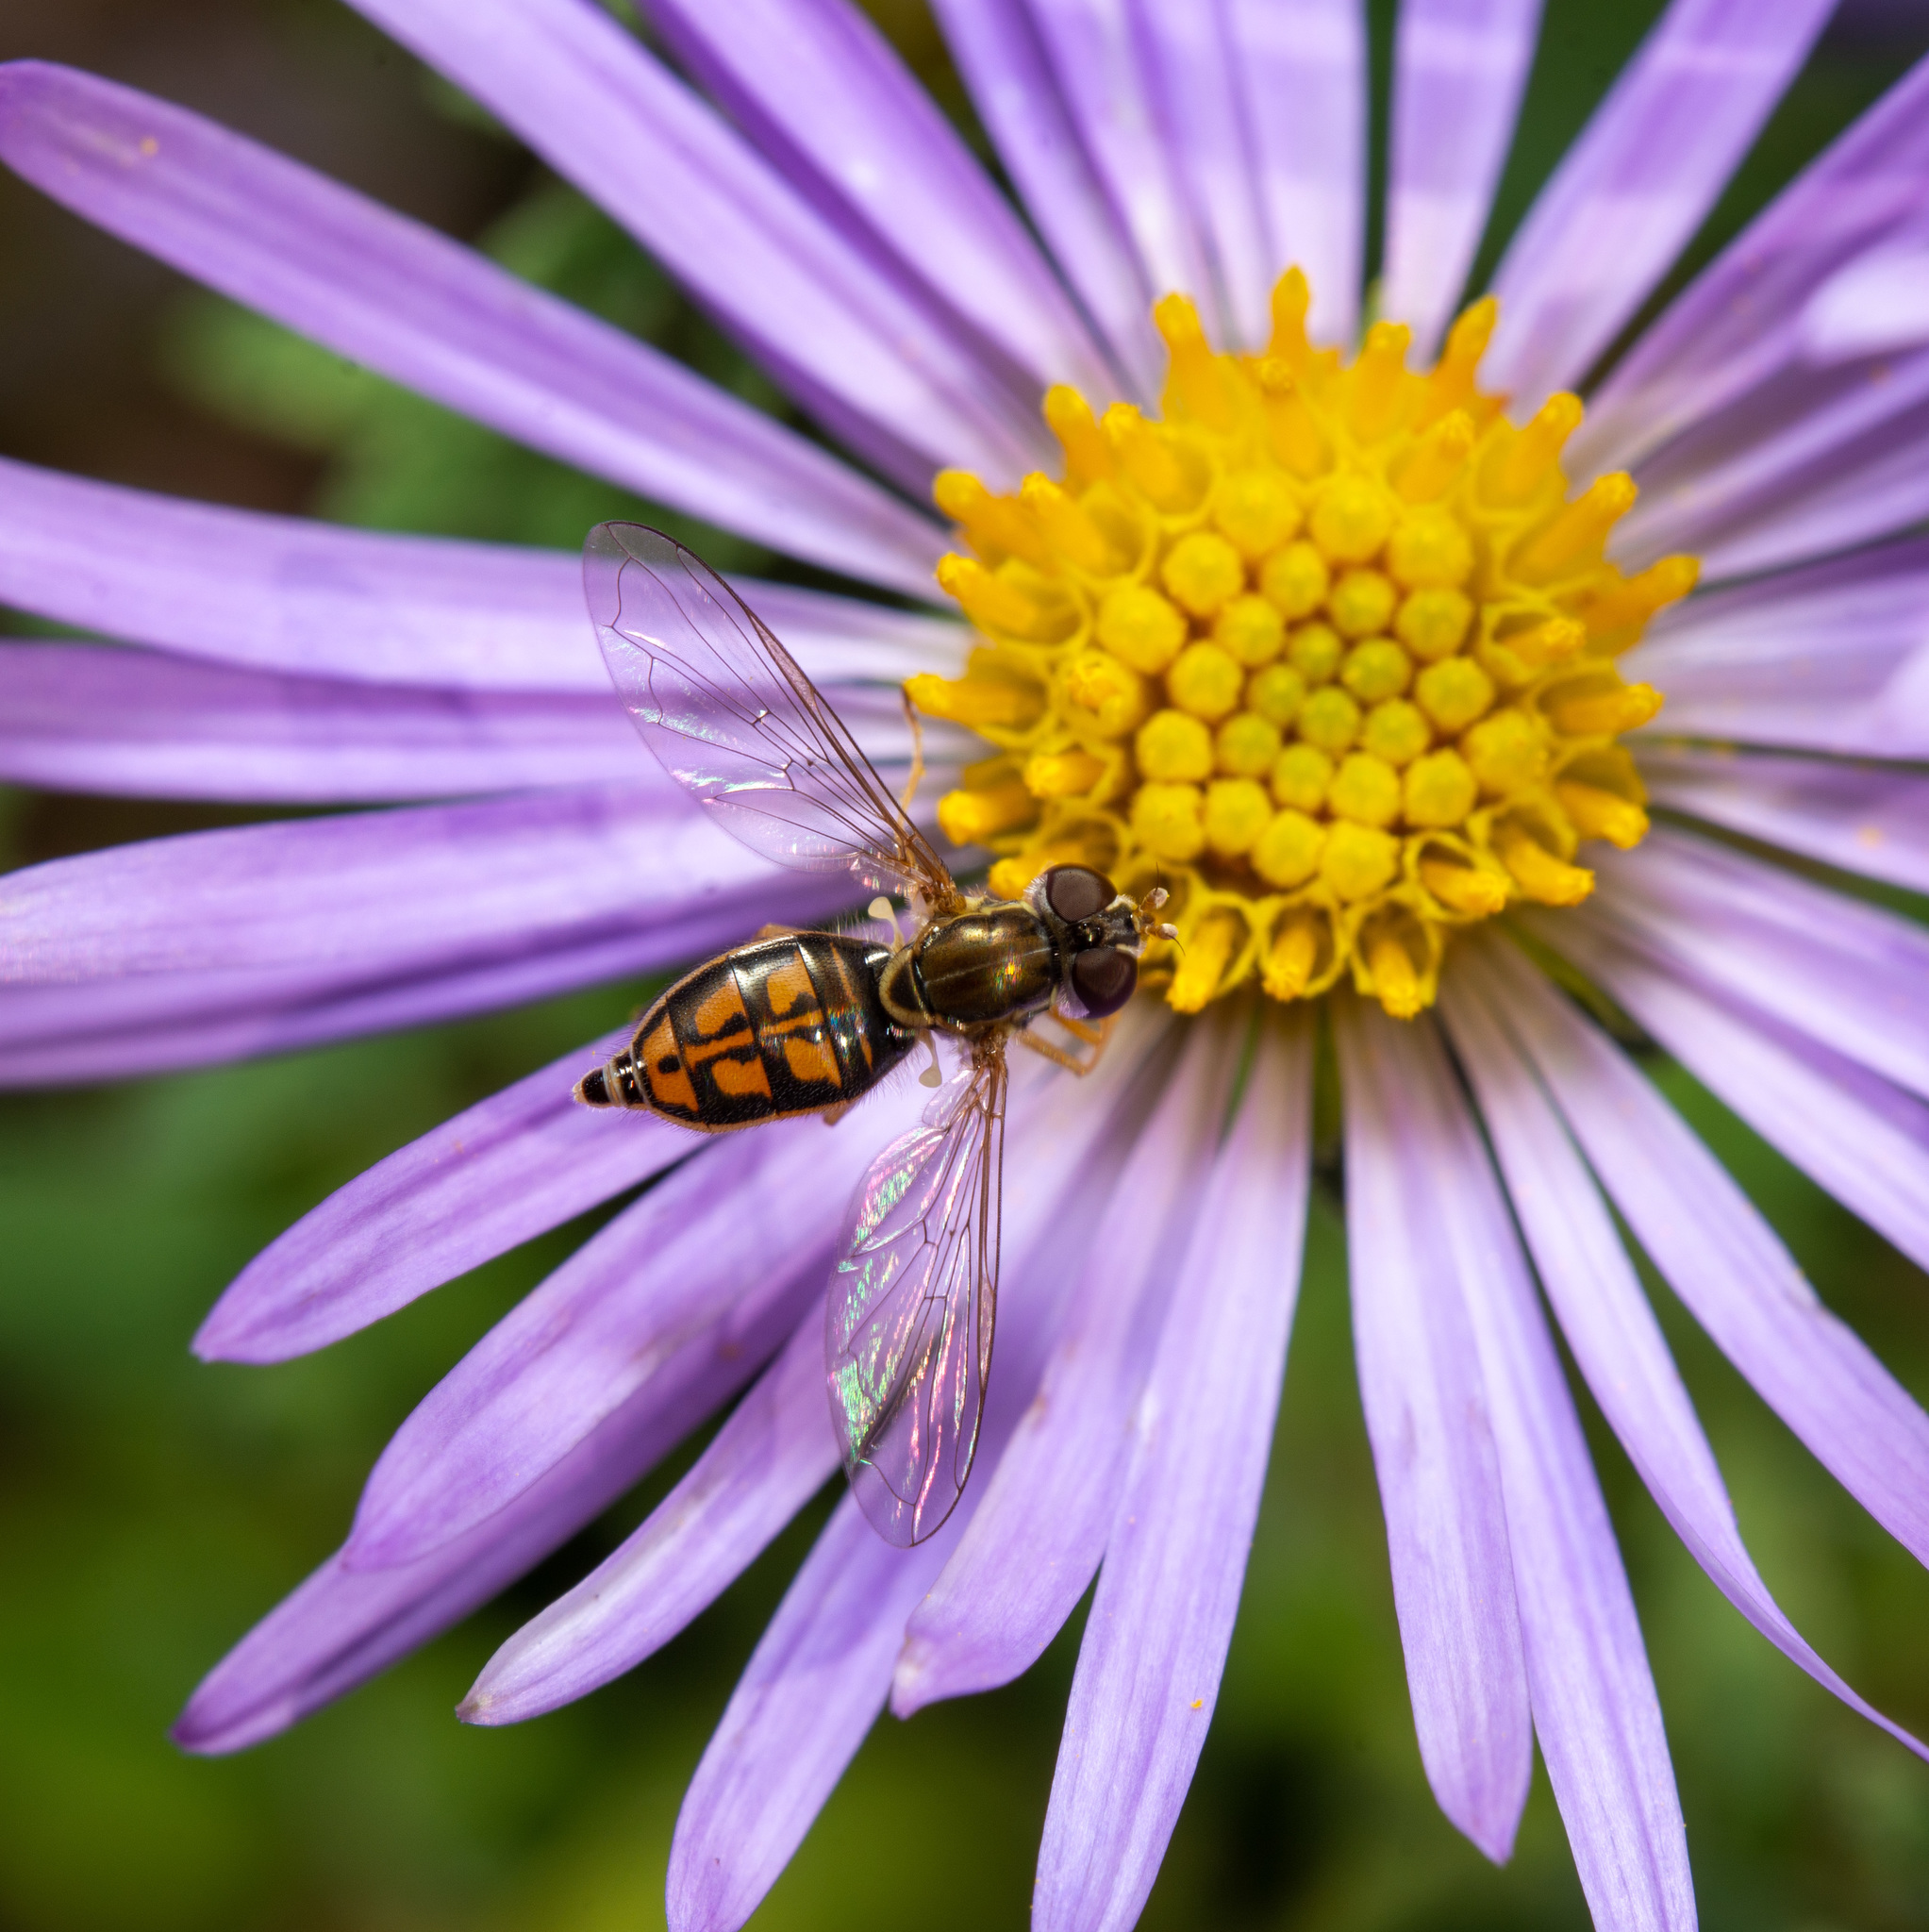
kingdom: Animalia
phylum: Arthropoda
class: Insecta
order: Diptera
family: Syrphidae
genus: Toxomerus
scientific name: Toxomerus marginatus
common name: Syrphid fly
